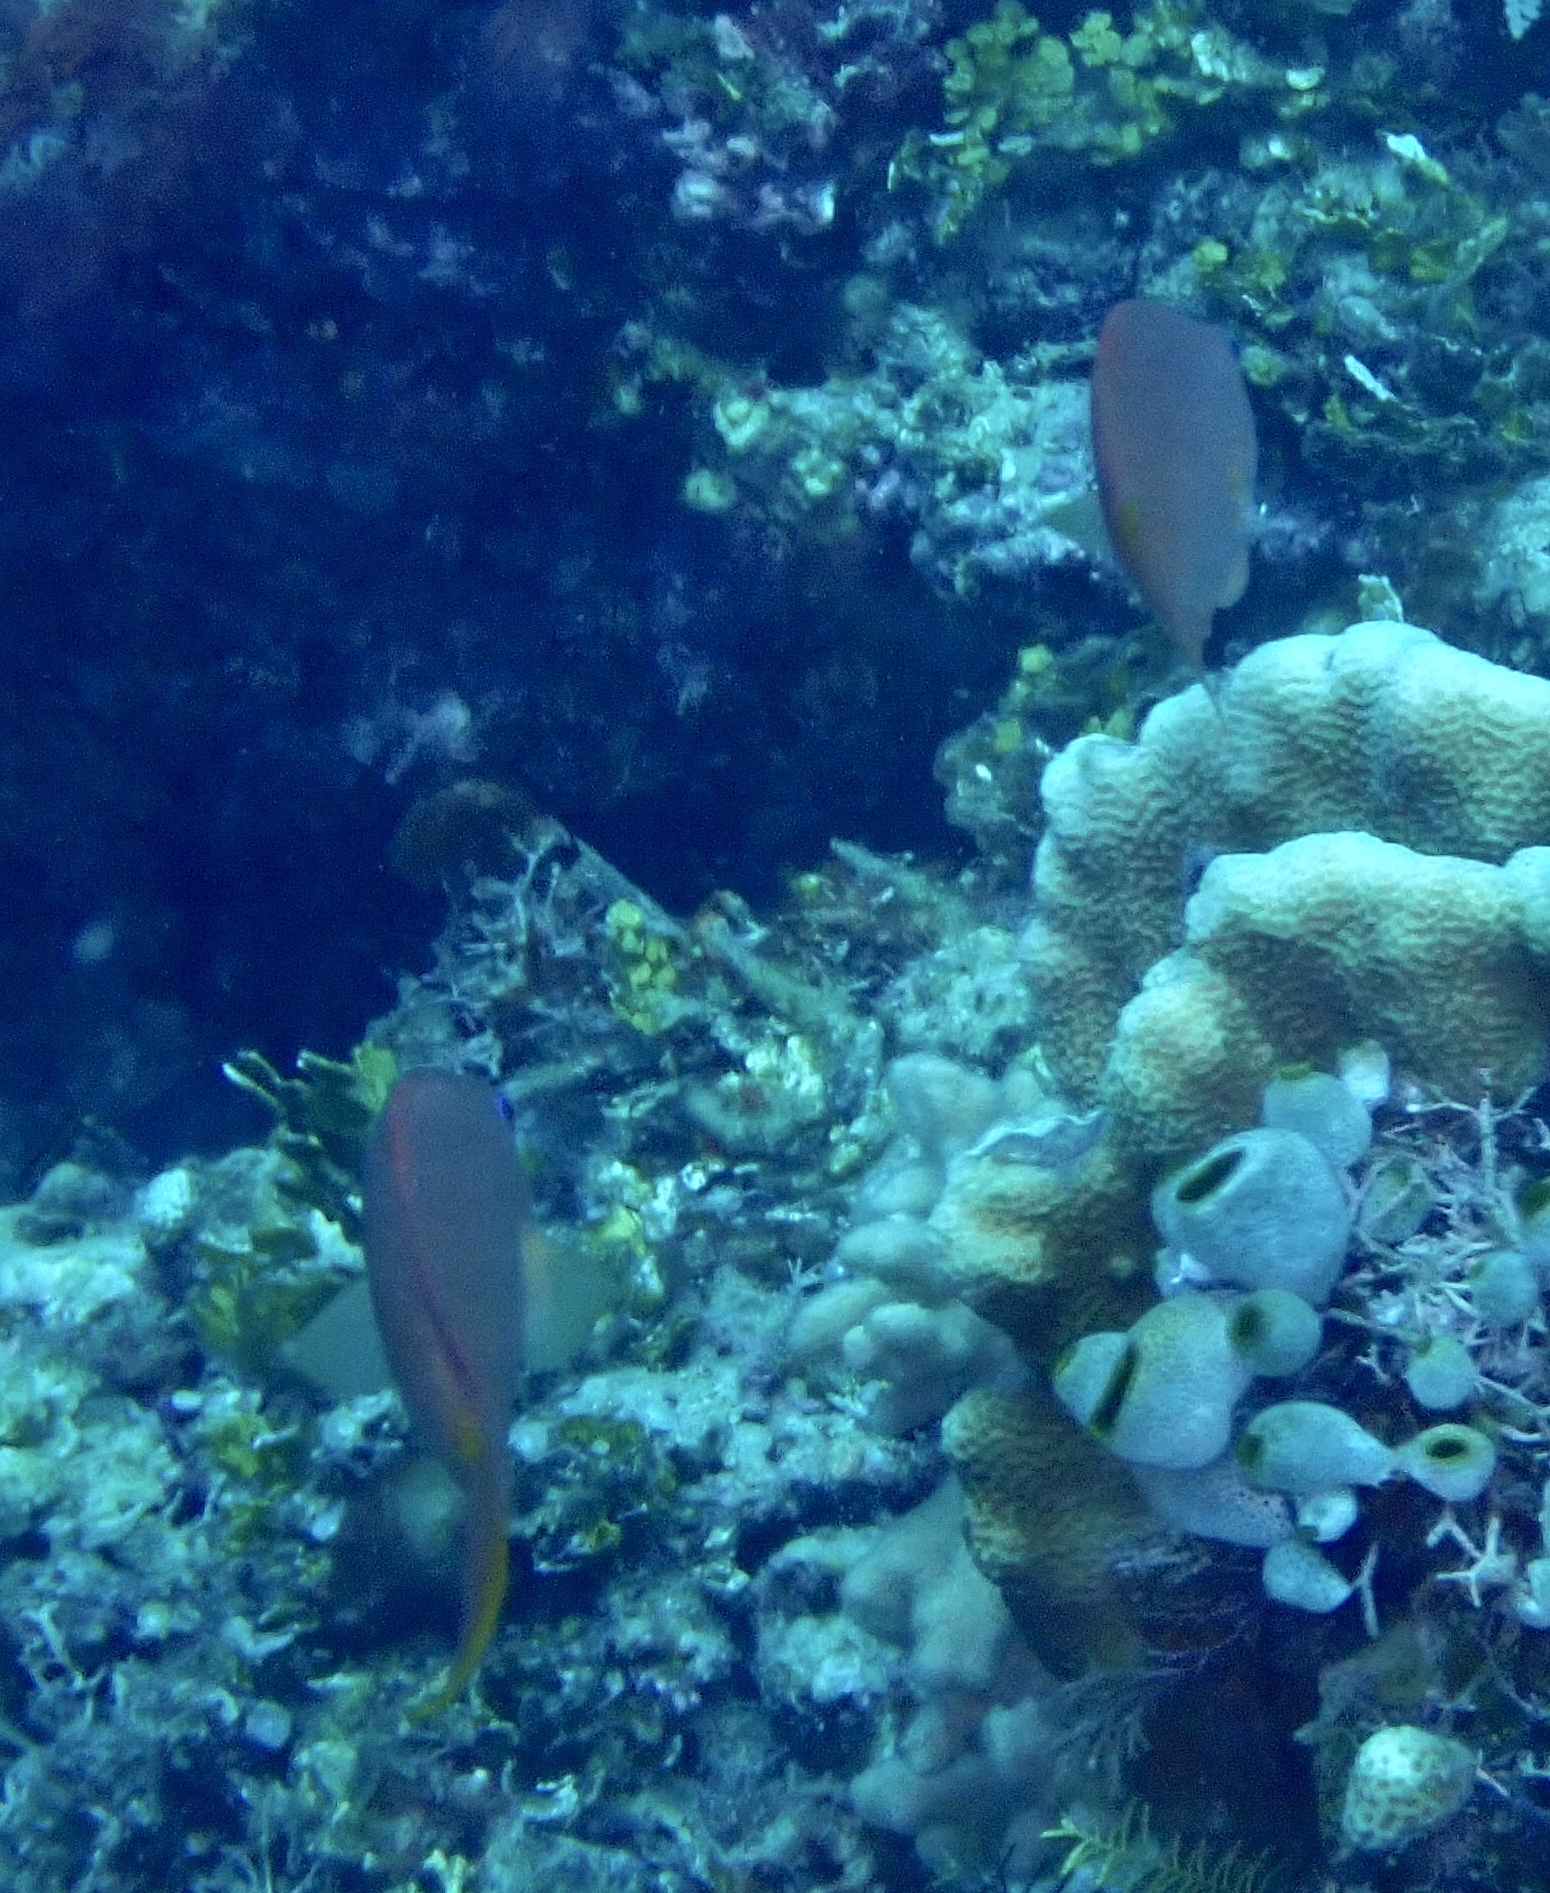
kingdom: Animalia
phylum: Chordata
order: Perciformes
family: Serranidae
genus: Pseudanthias
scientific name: Pseudanthias squamipinnis
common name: Scalefin anthias
